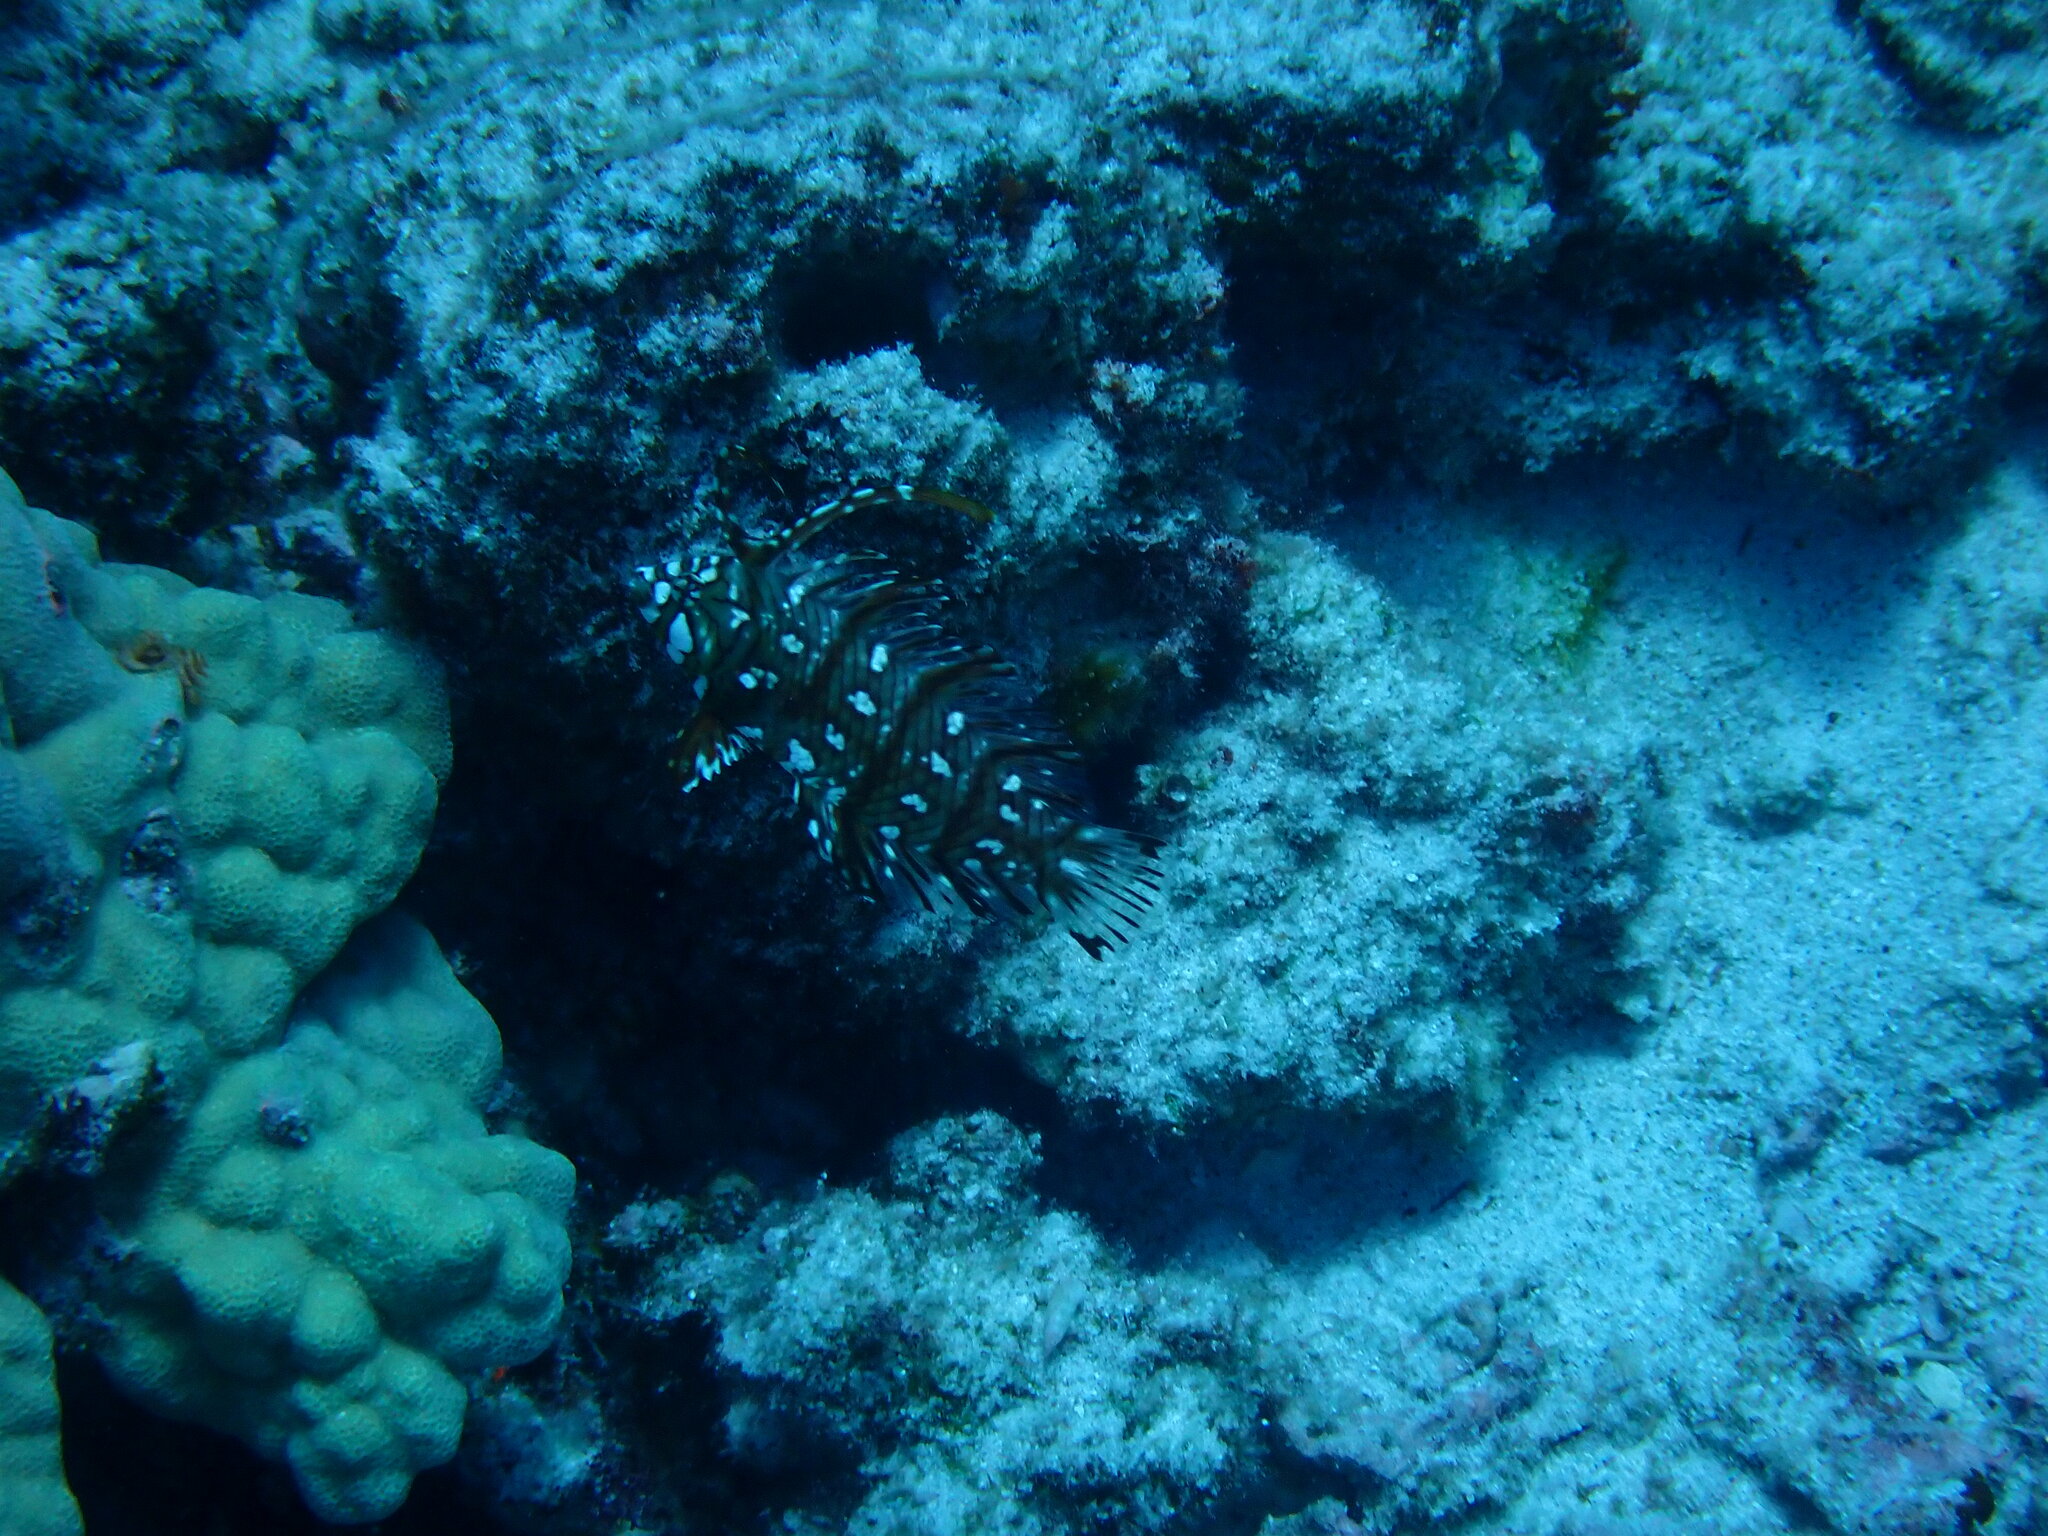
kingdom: Animalia
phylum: Chordata
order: Perciformes
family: Labridae
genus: Novaculichthys
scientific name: Novaculichthys taeniourus
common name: Rockmover wrasse
